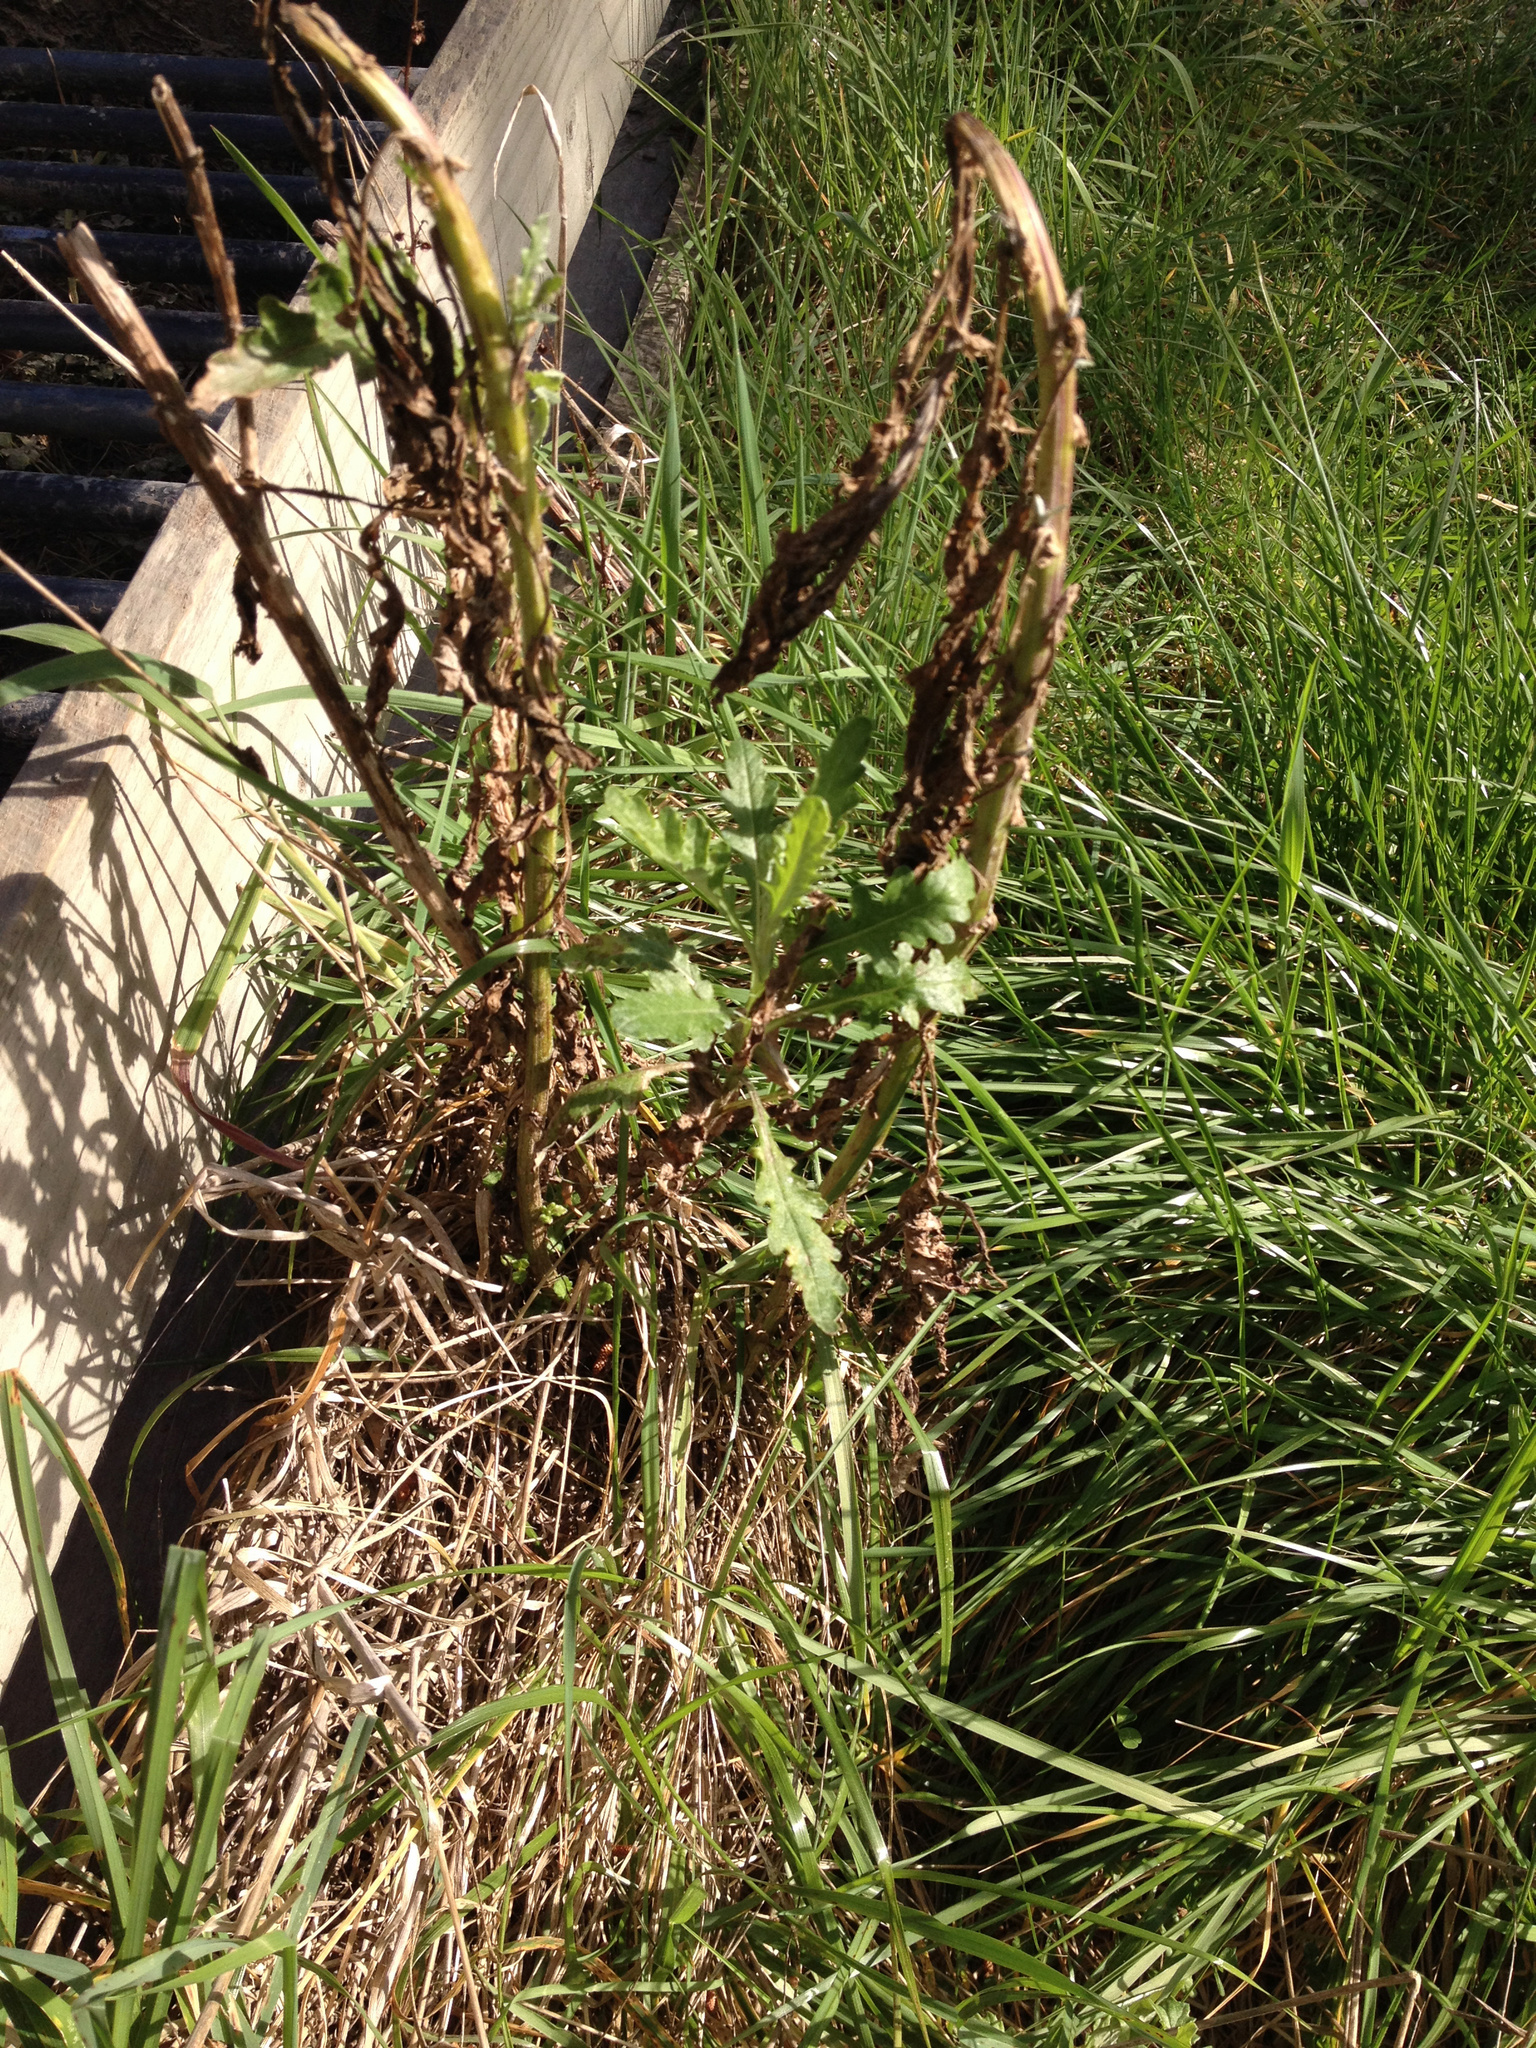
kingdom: Plantae
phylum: Tracheophyta
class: Magnoliopsida
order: Asterales
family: Asteraceae
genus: Senecio
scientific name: Senecio glomeratus
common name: Cutleaf burnweed
